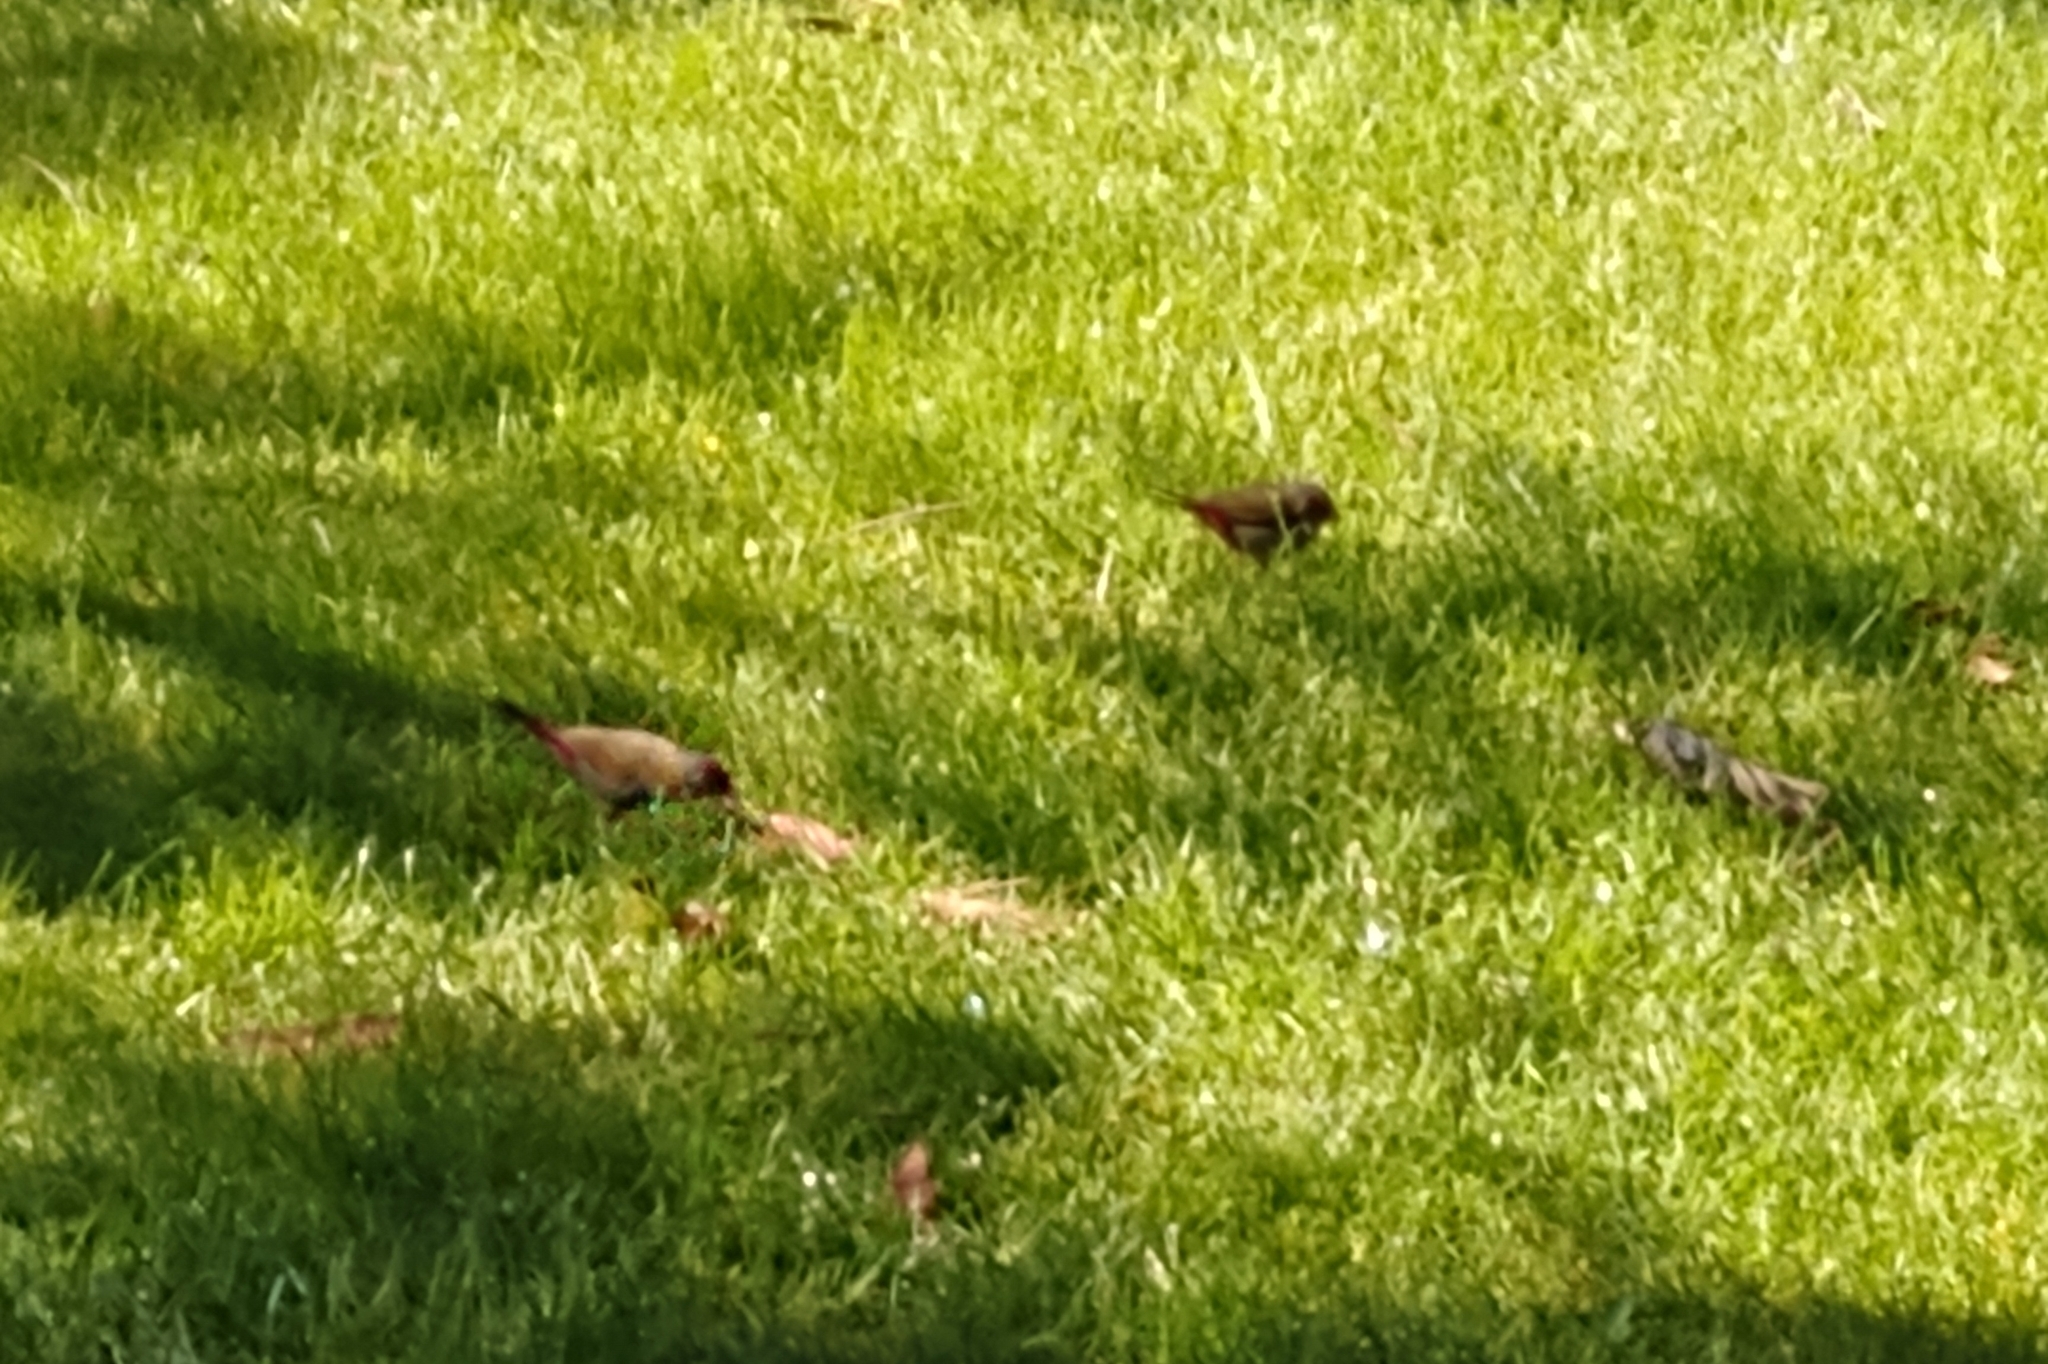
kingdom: Animalia
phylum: Chordata
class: Aves
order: Passeriformes
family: Estrildidae
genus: Neochmia
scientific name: Neochmia temporalis
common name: Red-browed finch
